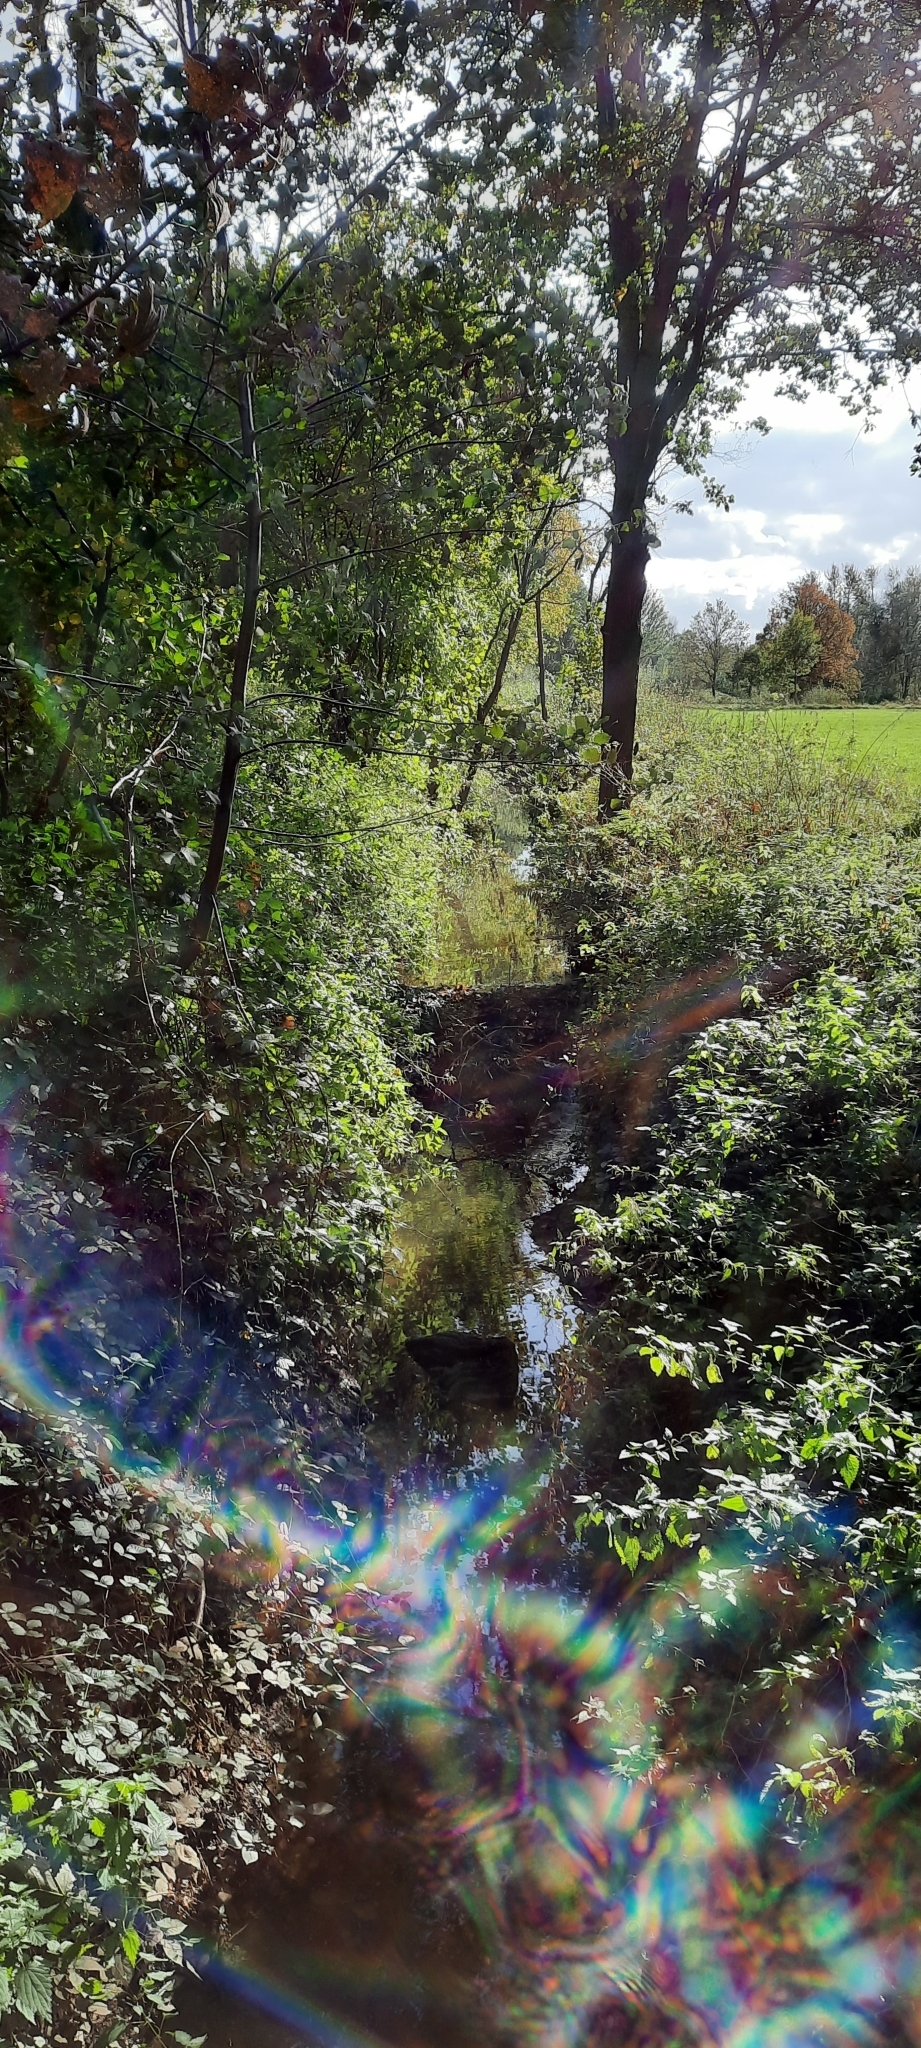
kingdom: Animalia
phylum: Chordata
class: Mammalia
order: Rodentia
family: Castoridae
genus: Castor
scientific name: Castor fiber
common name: Eurasian beaver
